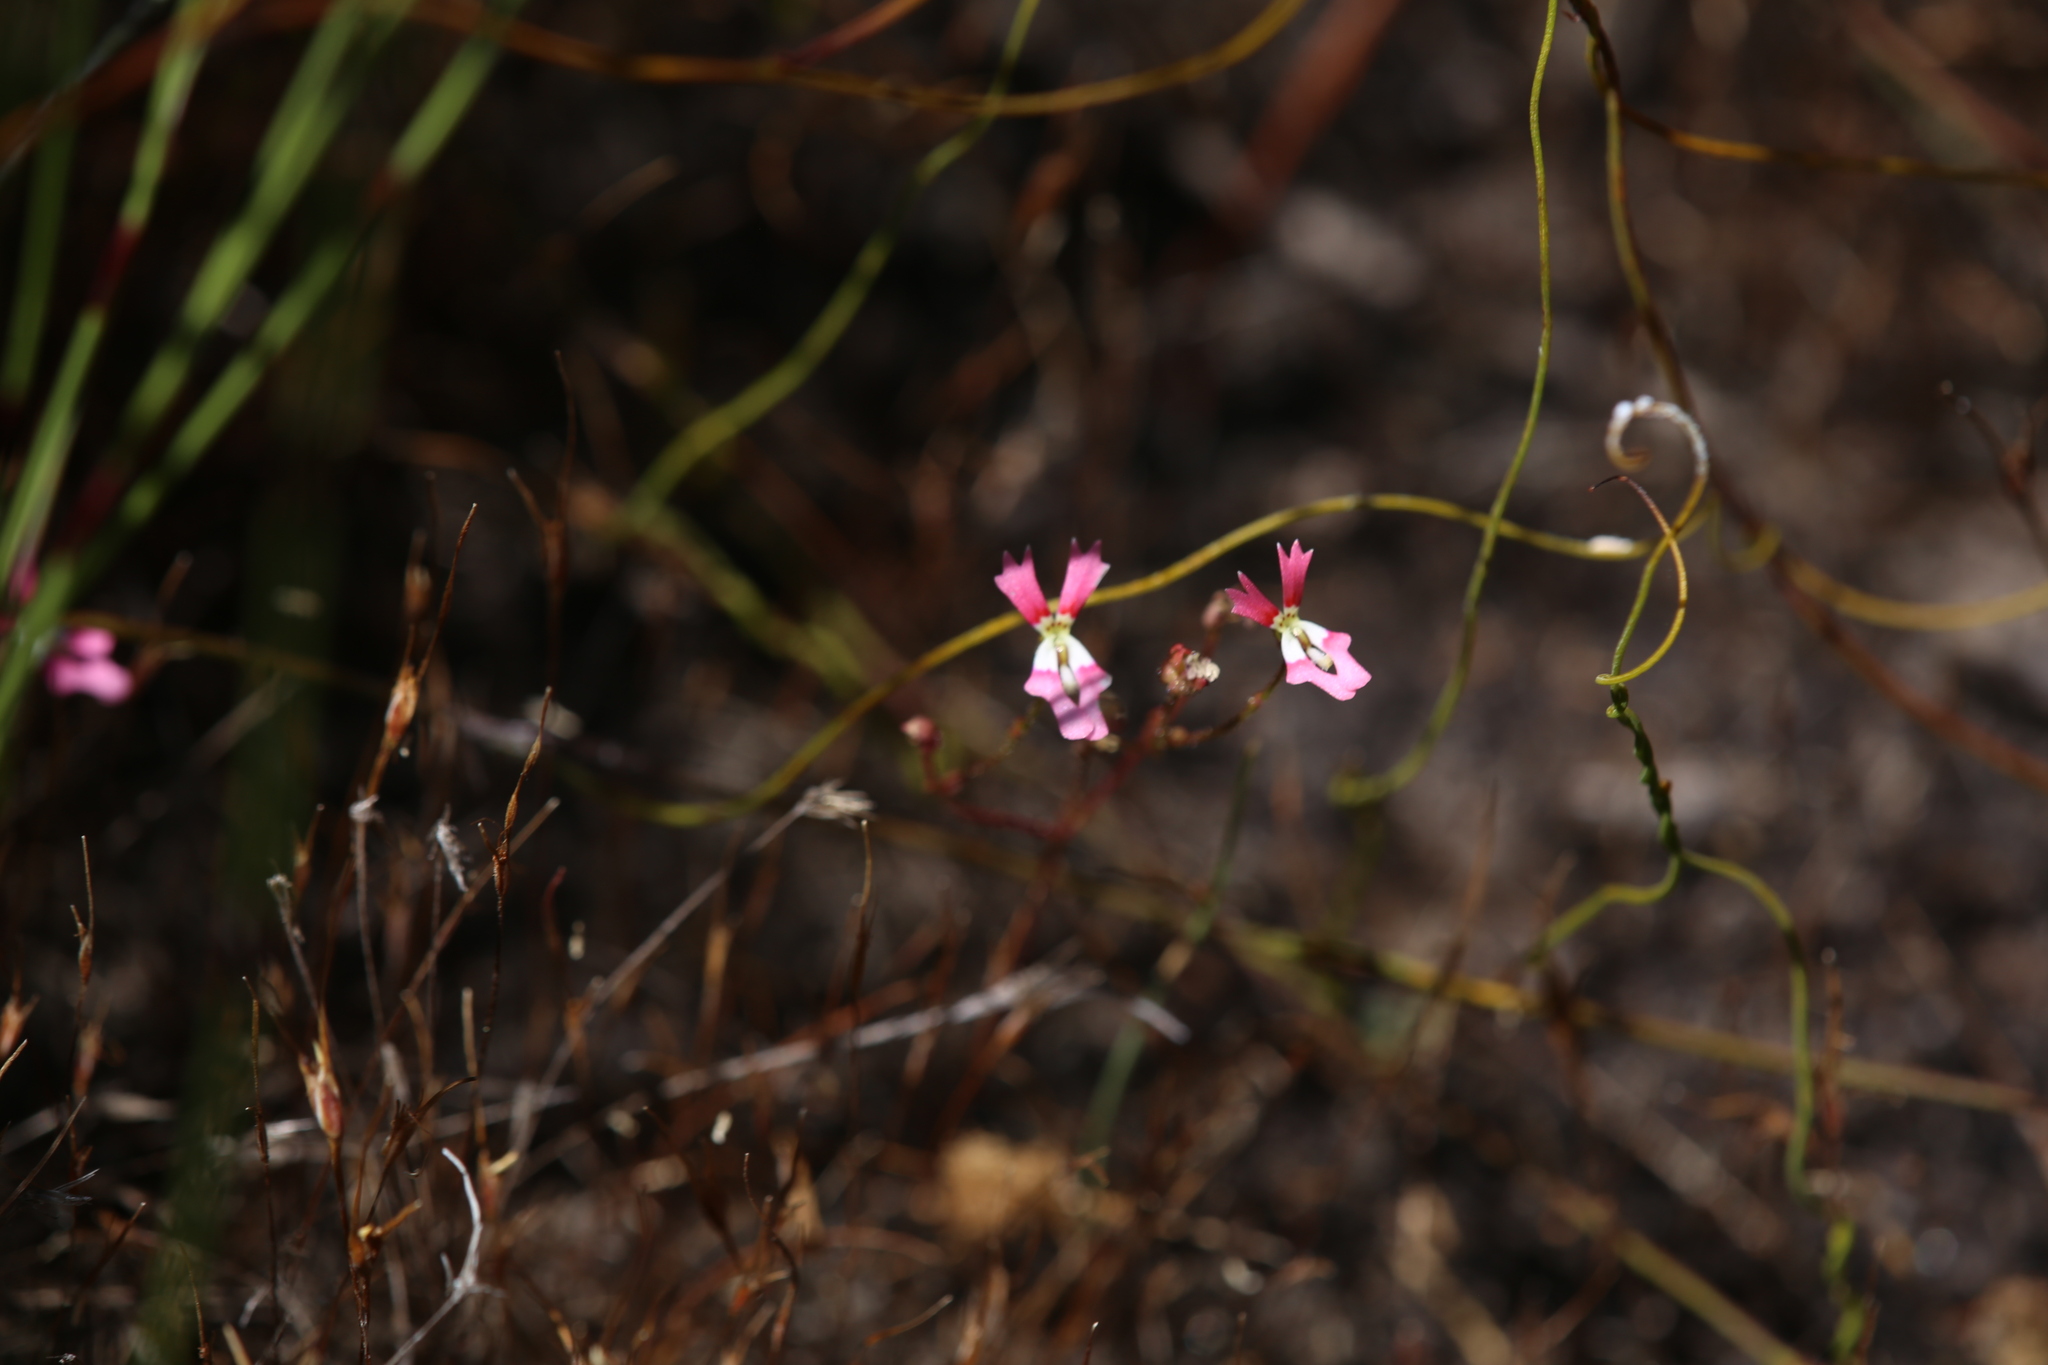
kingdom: Plantae
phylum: Tracheophyta
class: Magnoliopsida
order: Asterales
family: Stylidiaceae
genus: Stylidium
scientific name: Stylidium ecorne
